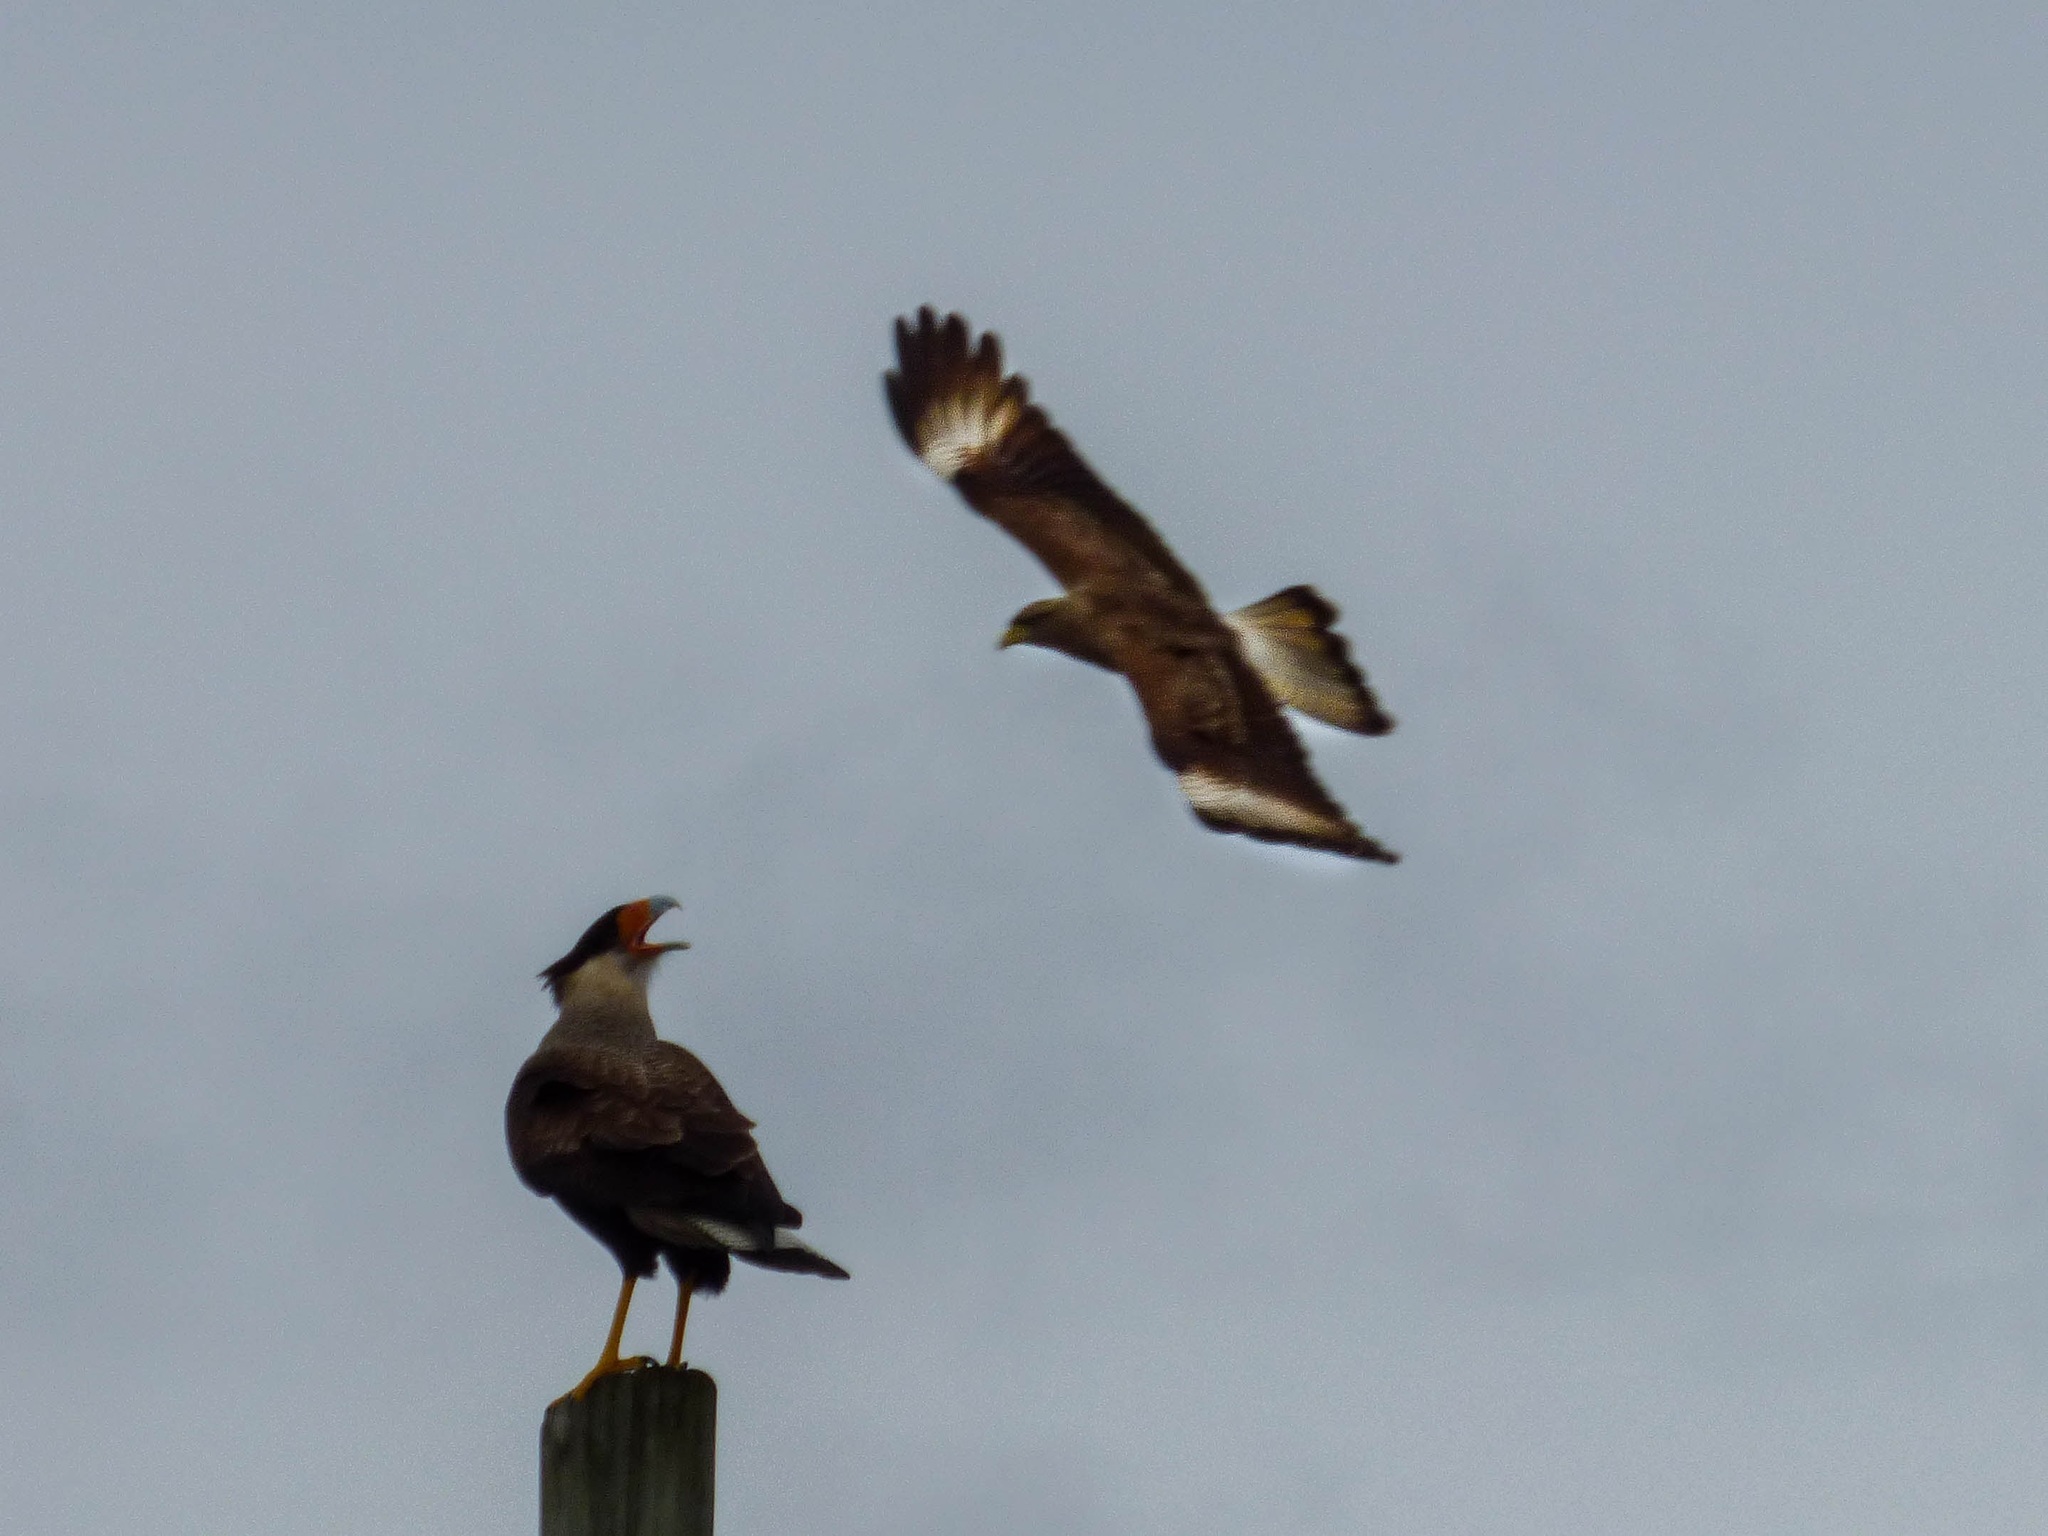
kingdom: Animalia
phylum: Chordata
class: Aves
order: Falconiformes
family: Falconidae
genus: Caracara
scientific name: Caracara plancus
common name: Southern caracara
